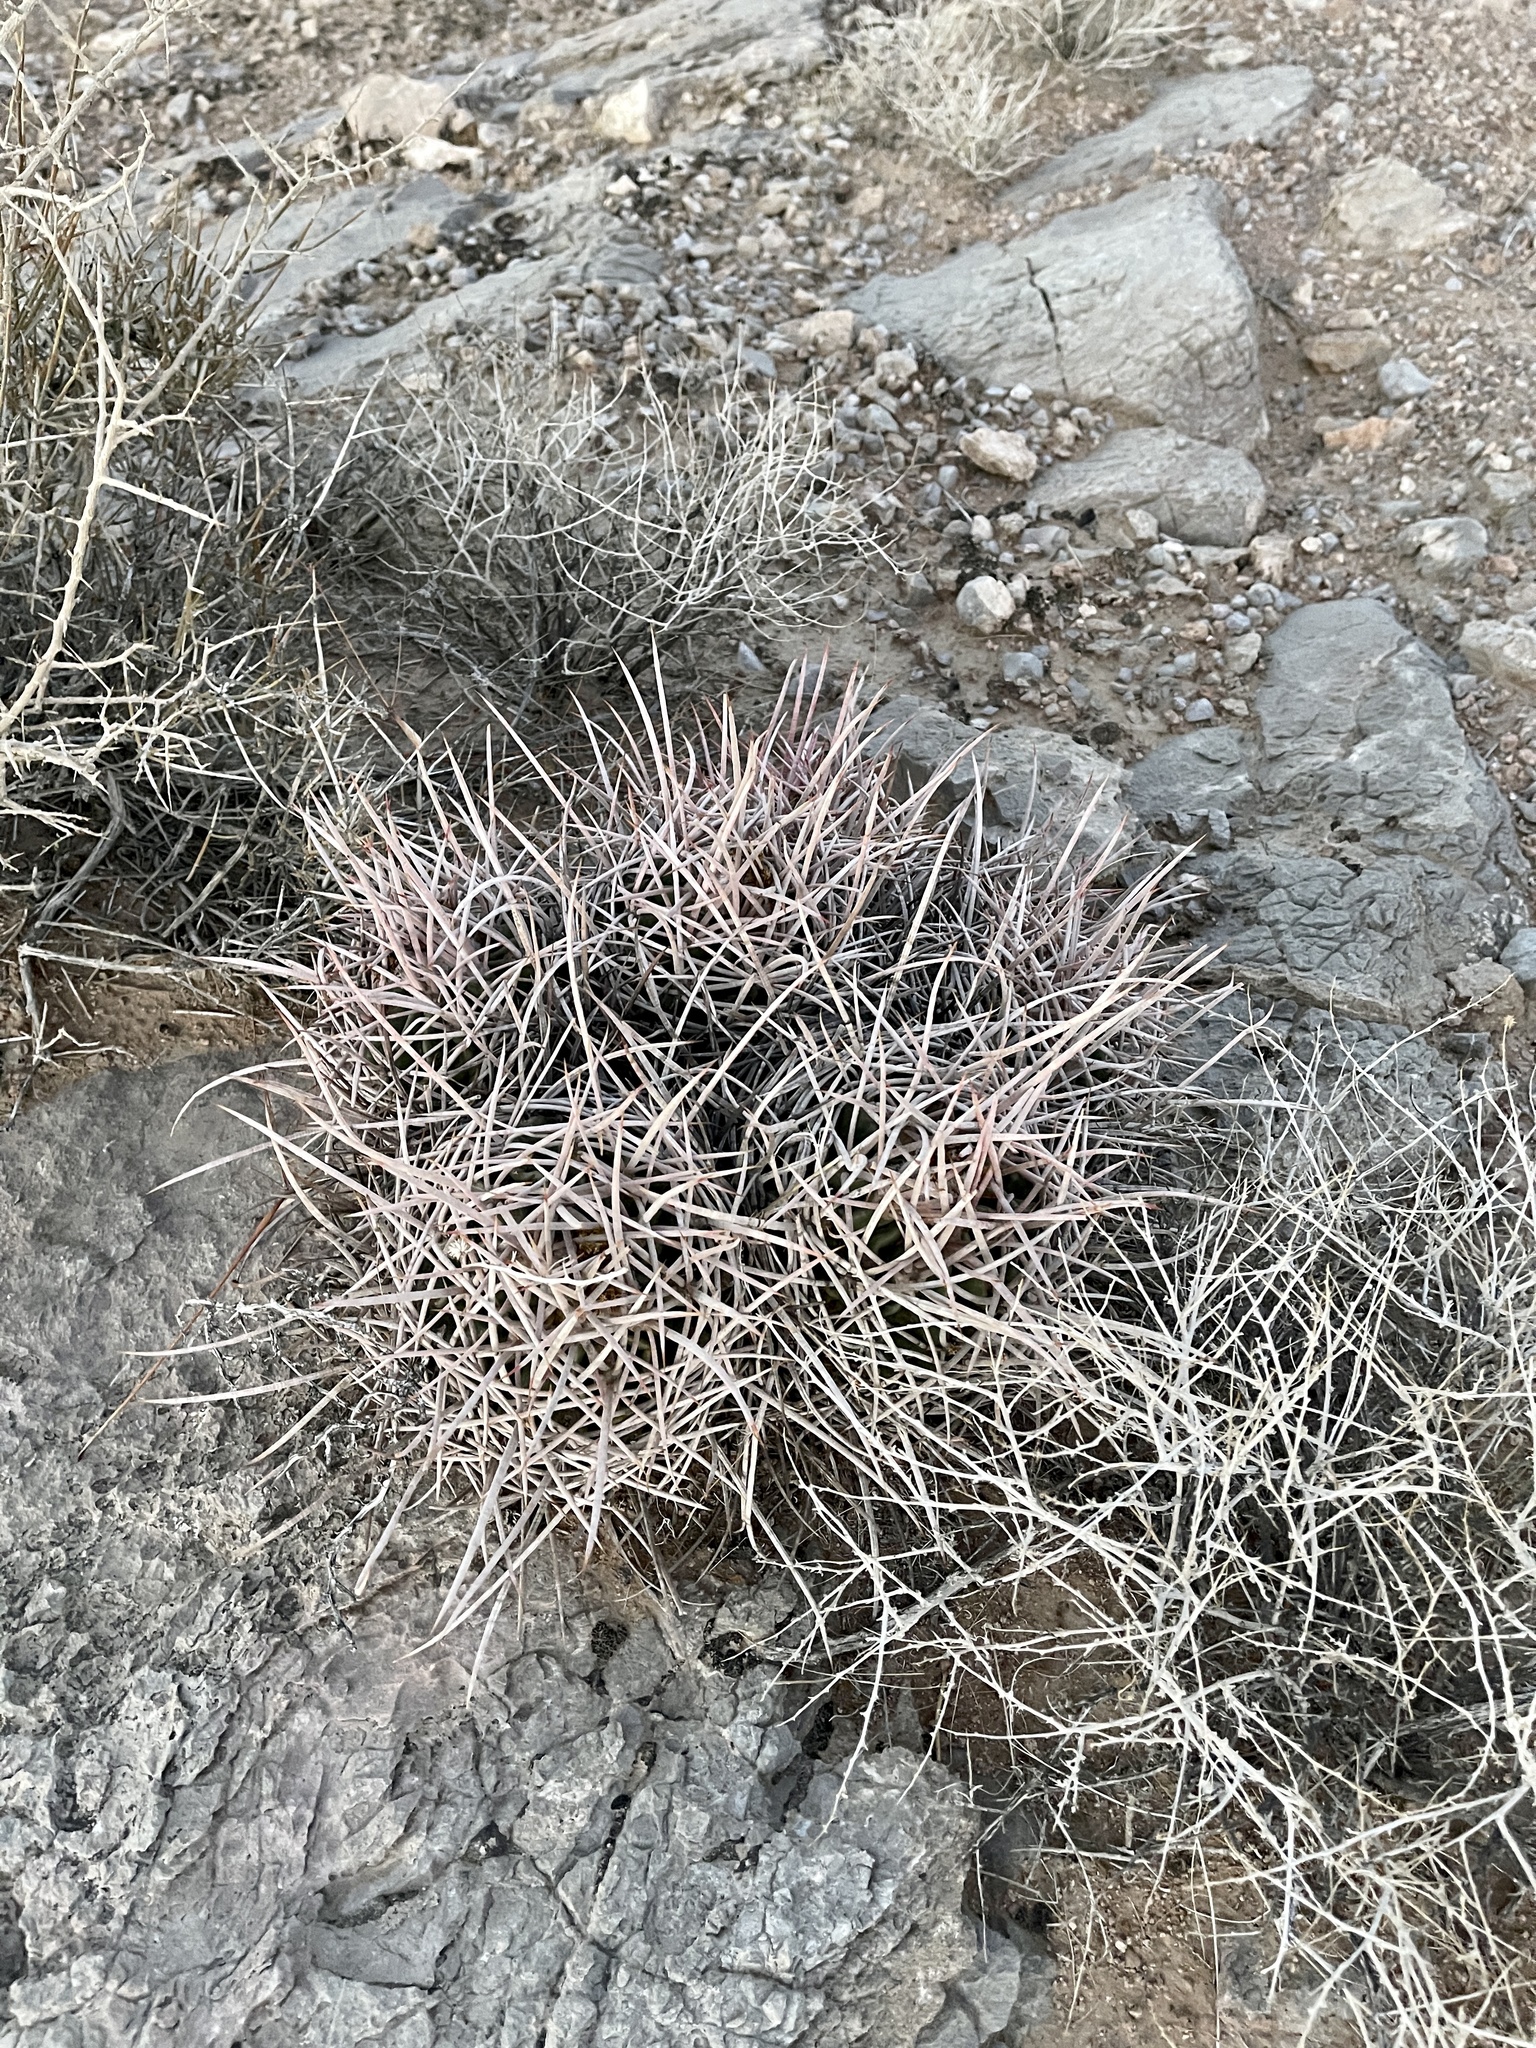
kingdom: Plantae
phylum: Tracheophyta
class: Magnoliopsida
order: Caryophyllales
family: Cactaceae
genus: Echinocactus
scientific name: Echinocactus polycephalus
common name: Cottontop cactus
